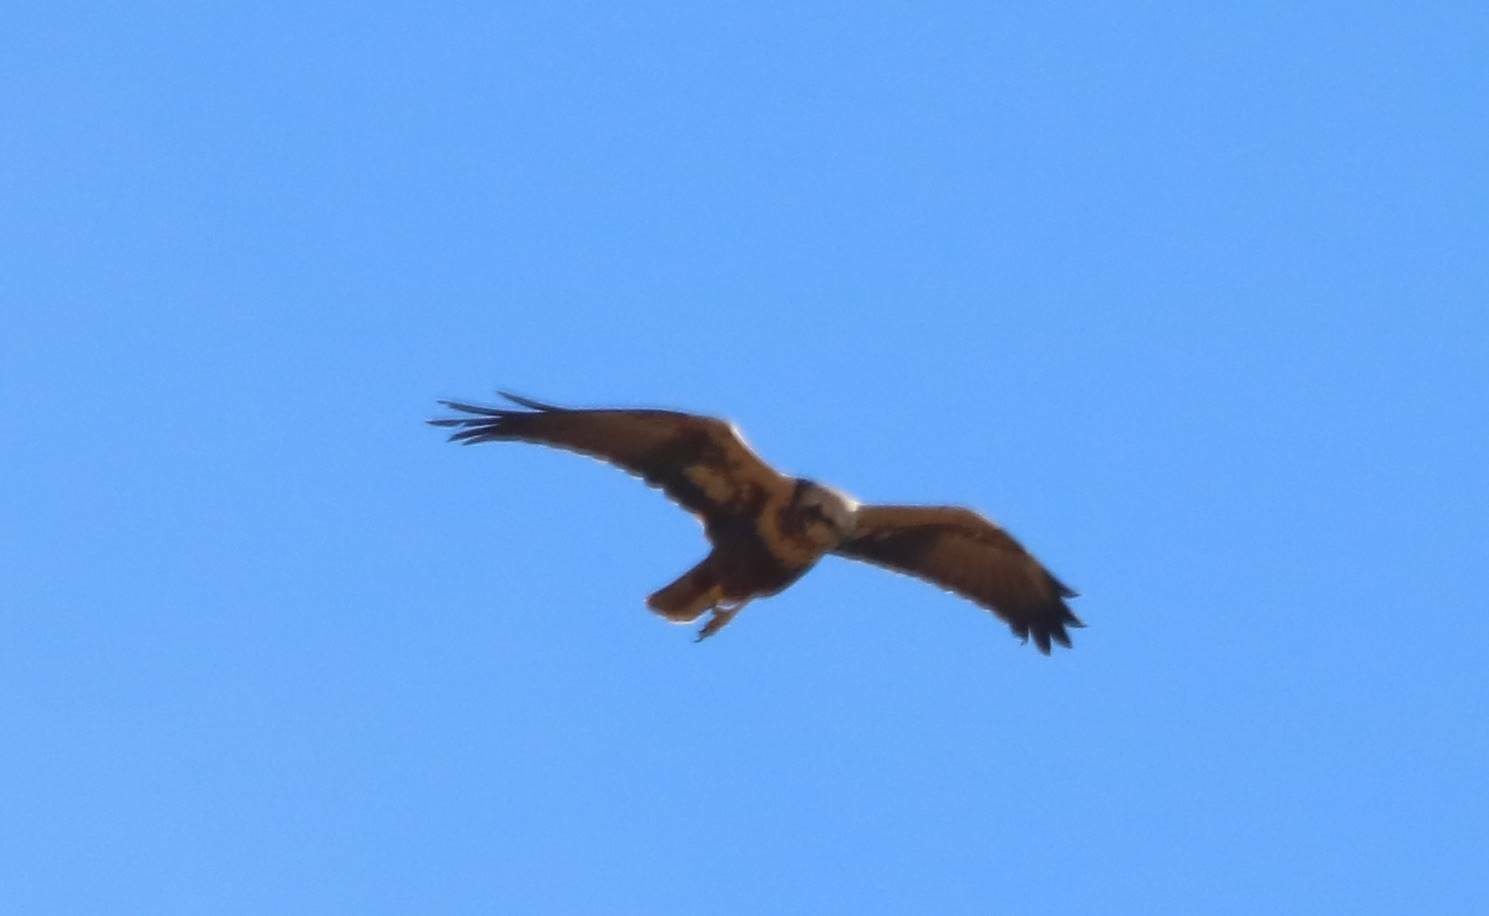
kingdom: Animalia
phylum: Chordata
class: Aves
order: Accipitriformes
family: Accipitridae
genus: Circus
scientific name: Circus aeruginosus
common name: Western marsh harrier
